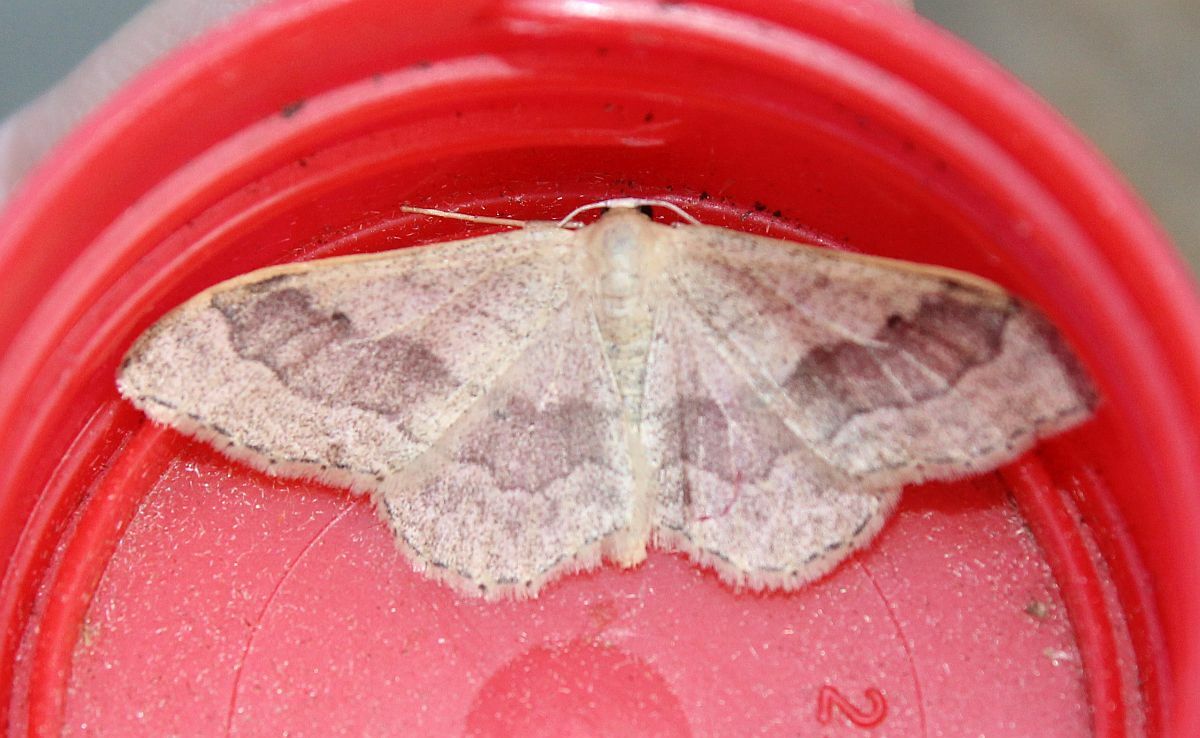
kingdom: Animalia
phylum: Arthropoda
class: Insecta
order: Lepidoptera
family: Geometridae
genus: Idaea
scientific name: Idaea aversata
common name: Riband wave
